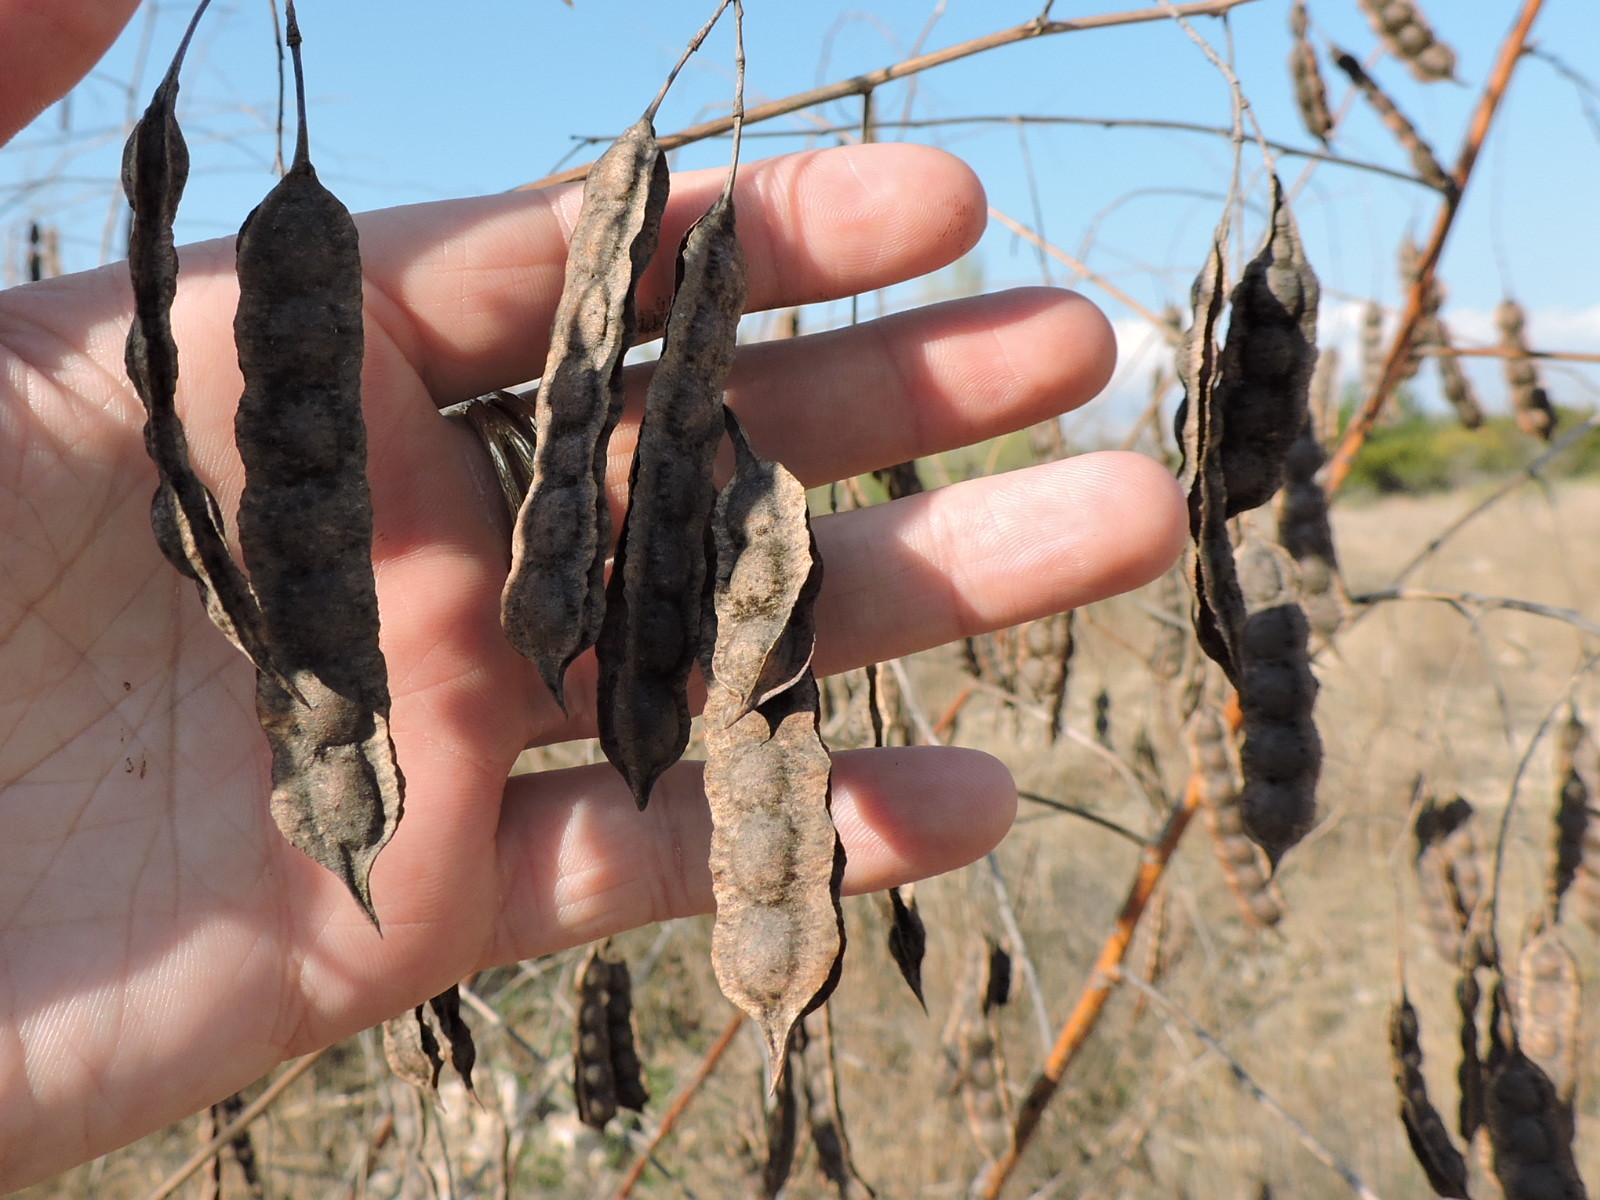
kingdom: Plantae
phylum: Tracheophyta
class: Magnoliopsida
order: Fabales
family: Fabaceae
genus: Sesbania
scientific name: Sesbania drummondii
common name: Poison-bean
